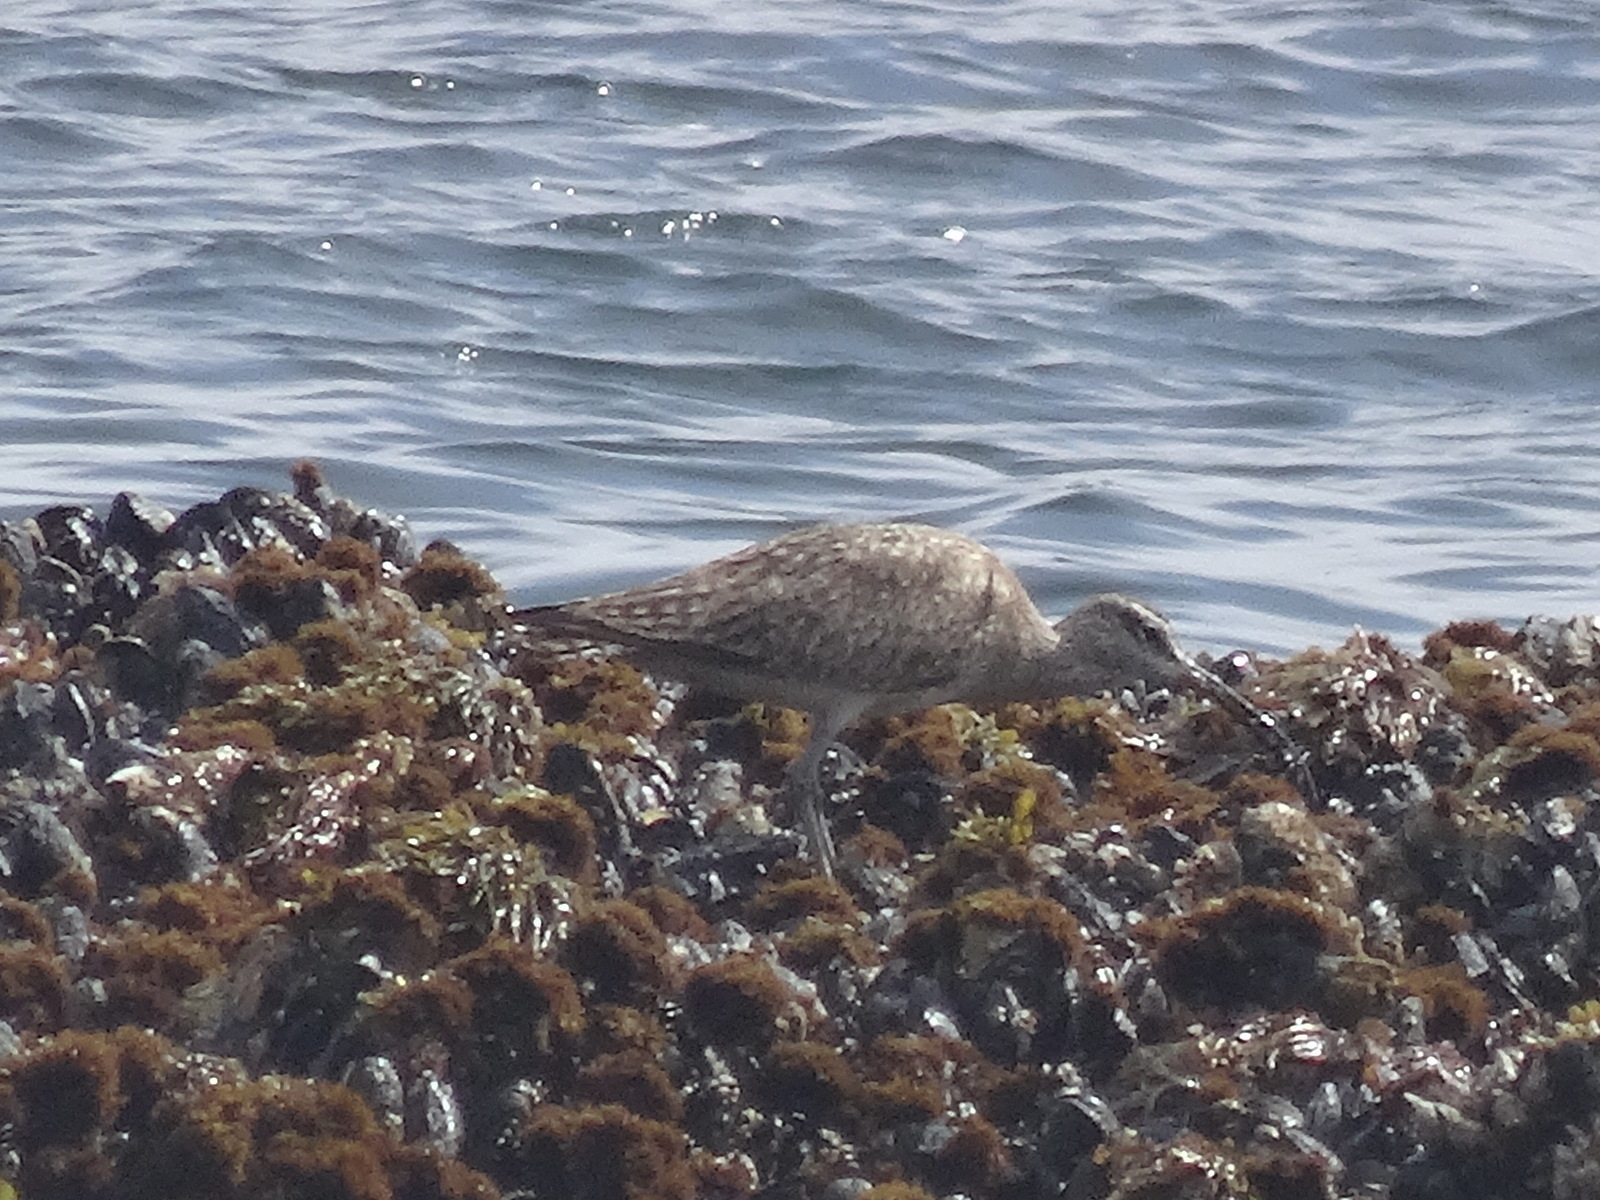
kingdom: Animalia
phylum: Chordata
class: Aves
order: Charadriiformes
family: Scolopacidae
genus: Numenius
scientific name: Numenius phaeopus
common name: Whimbrel
